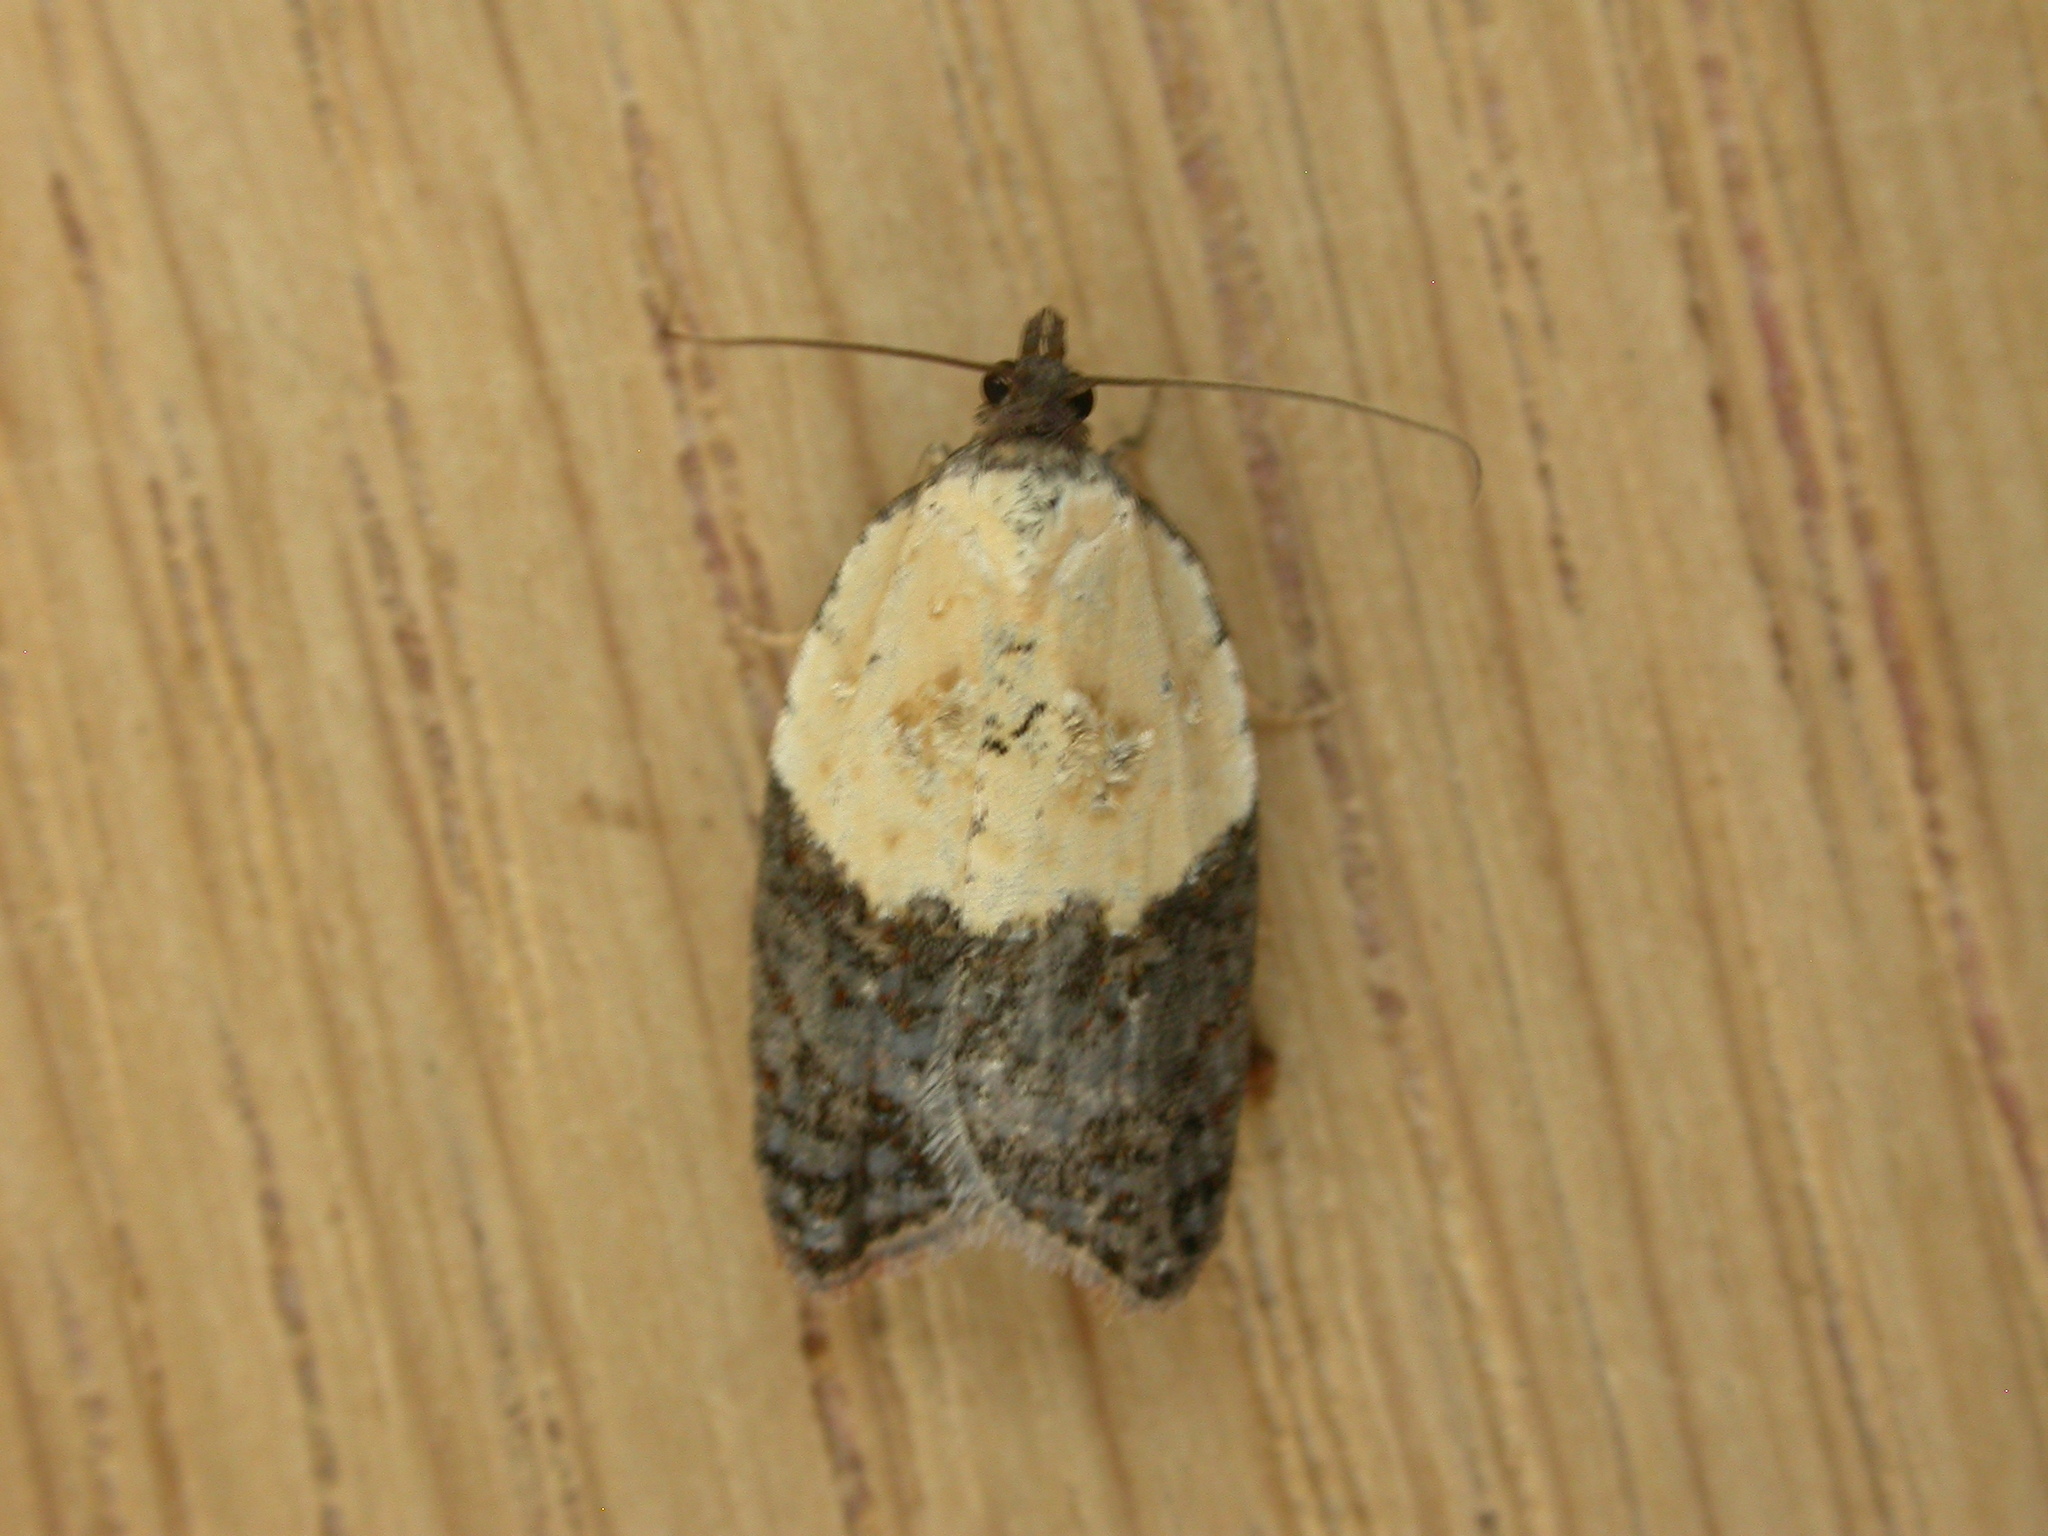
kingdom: Animalia
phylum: Arthropoda
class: Insecta
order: Lepidoptera
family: Tortricidae
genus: Acleris
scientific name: Acleris variegana
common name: Garden rose tortrix
